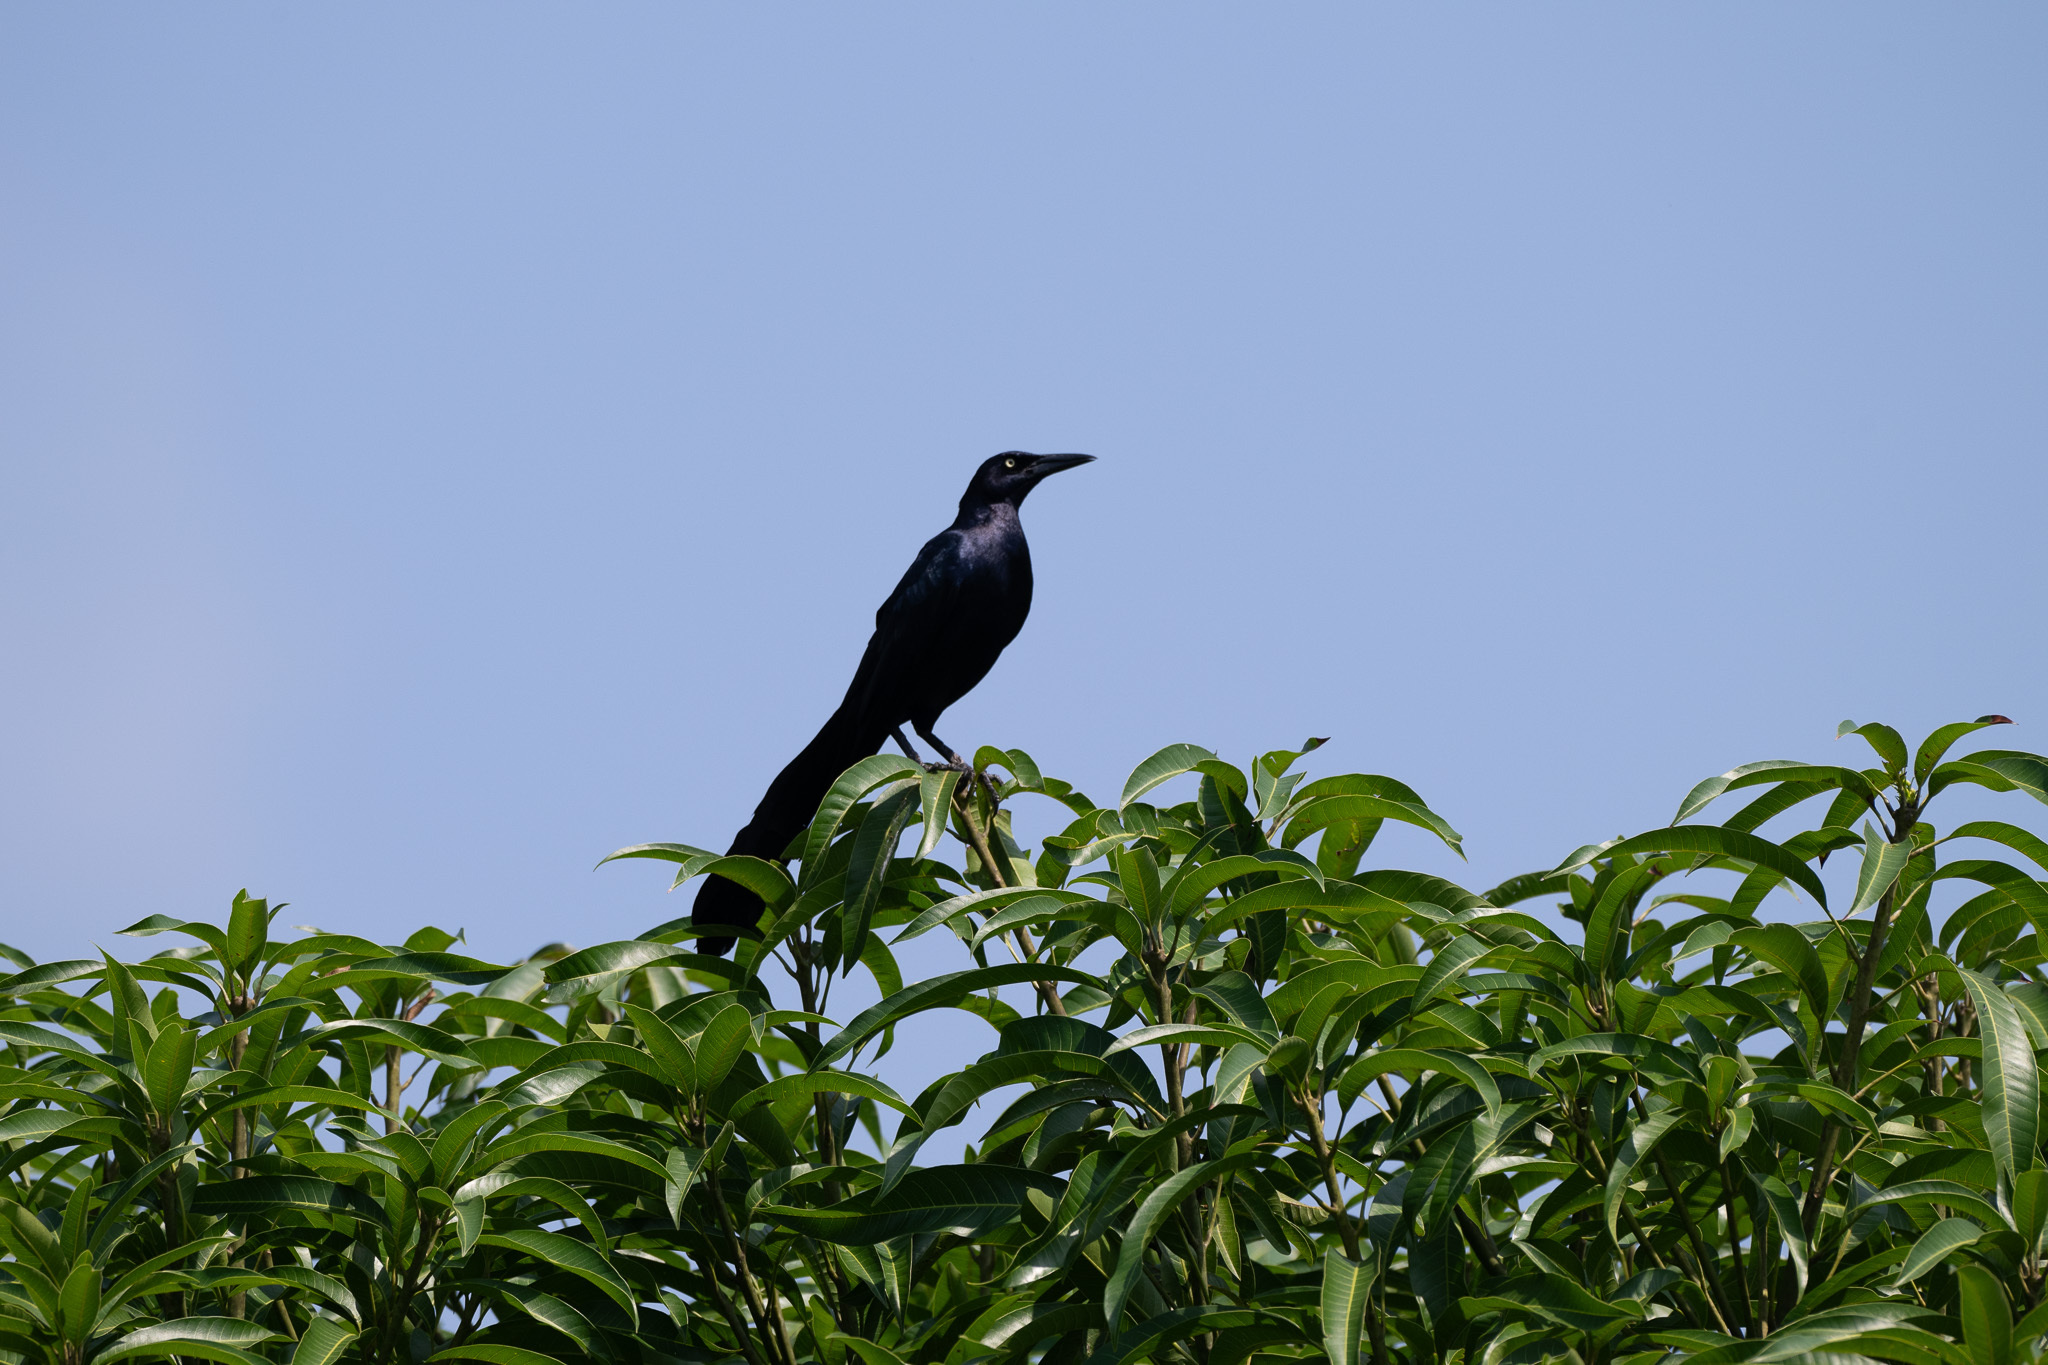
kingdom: Animalia
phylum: Chordata
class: Aves
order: Passeriformes
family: Icteridae
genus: Quiscalus
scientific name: Quiscalus mexicanus
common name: Great-tailed grackle
